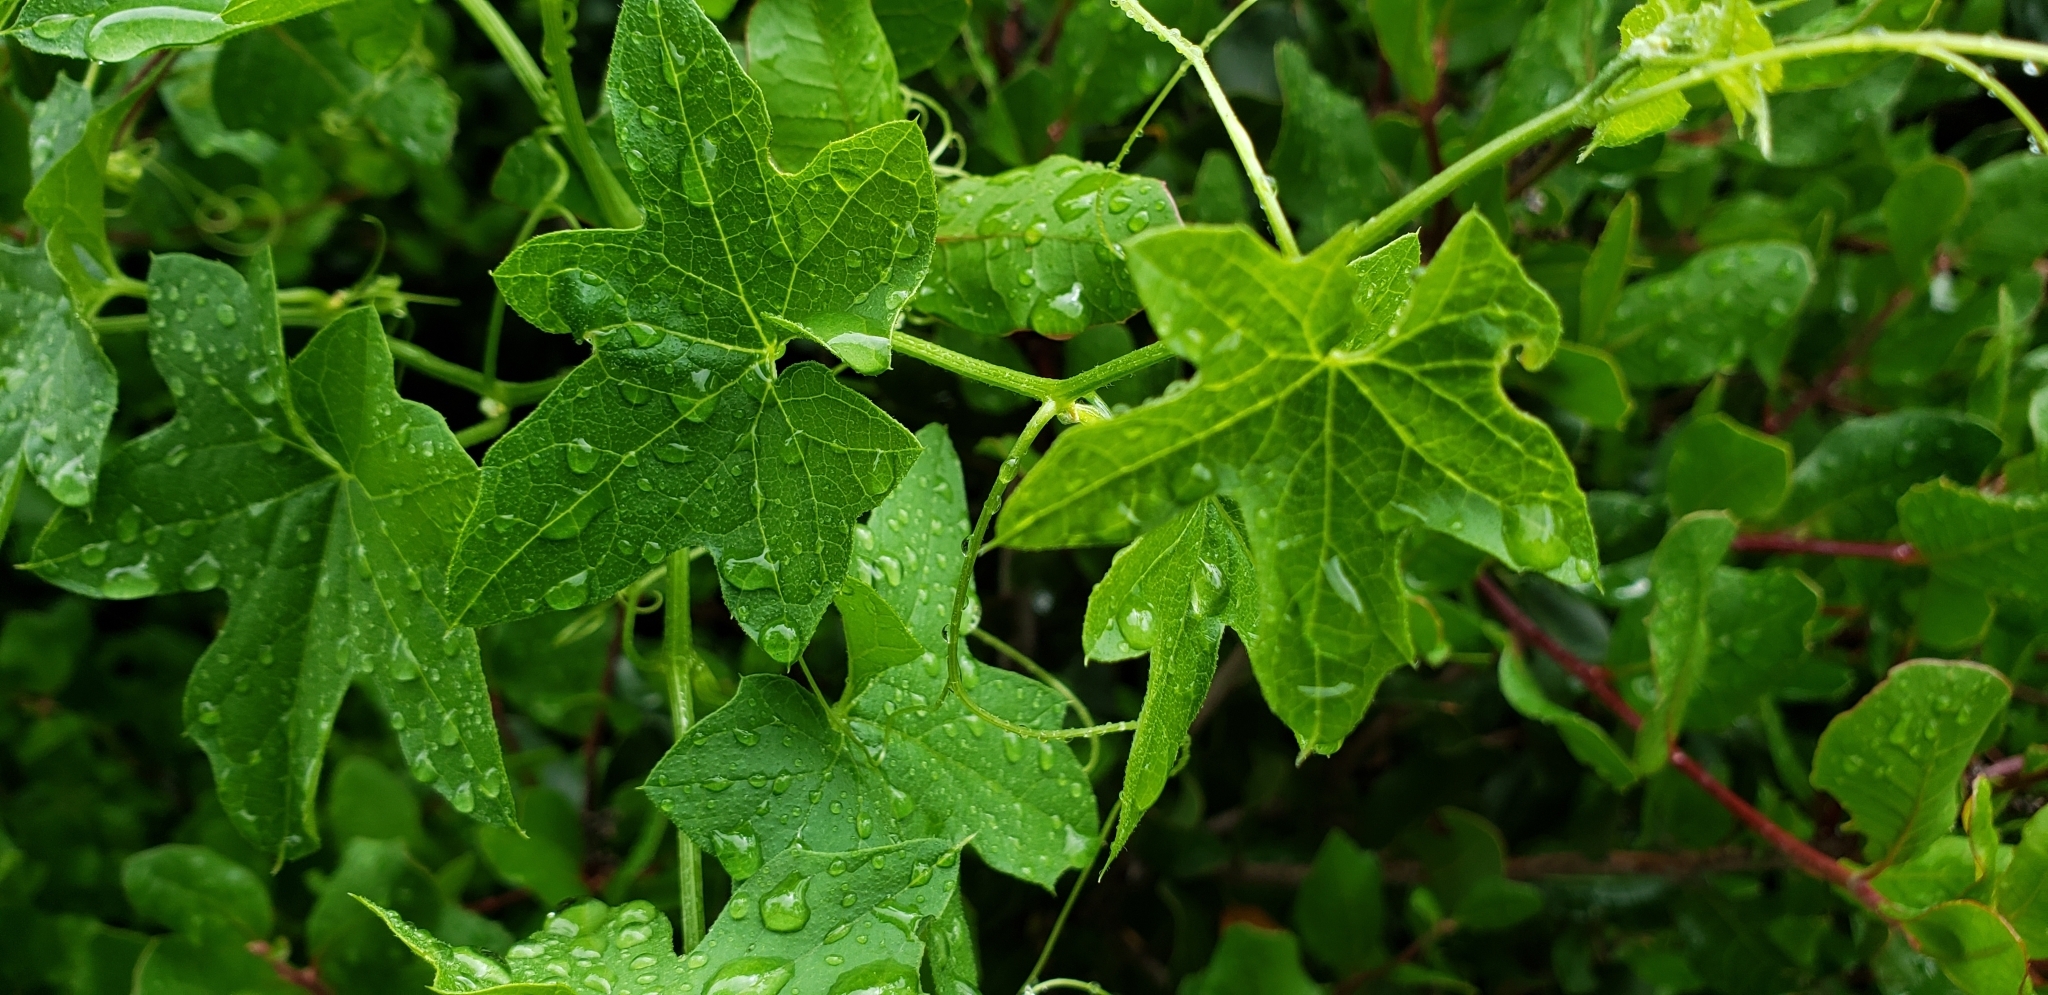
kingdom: Plantae
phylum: Tracheophyta
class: Magnoliopsida
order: Cucurbitales
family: Cucurbitaceae
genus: Marah
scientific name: Marah macrocarpa
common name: Cucamonga manroot
